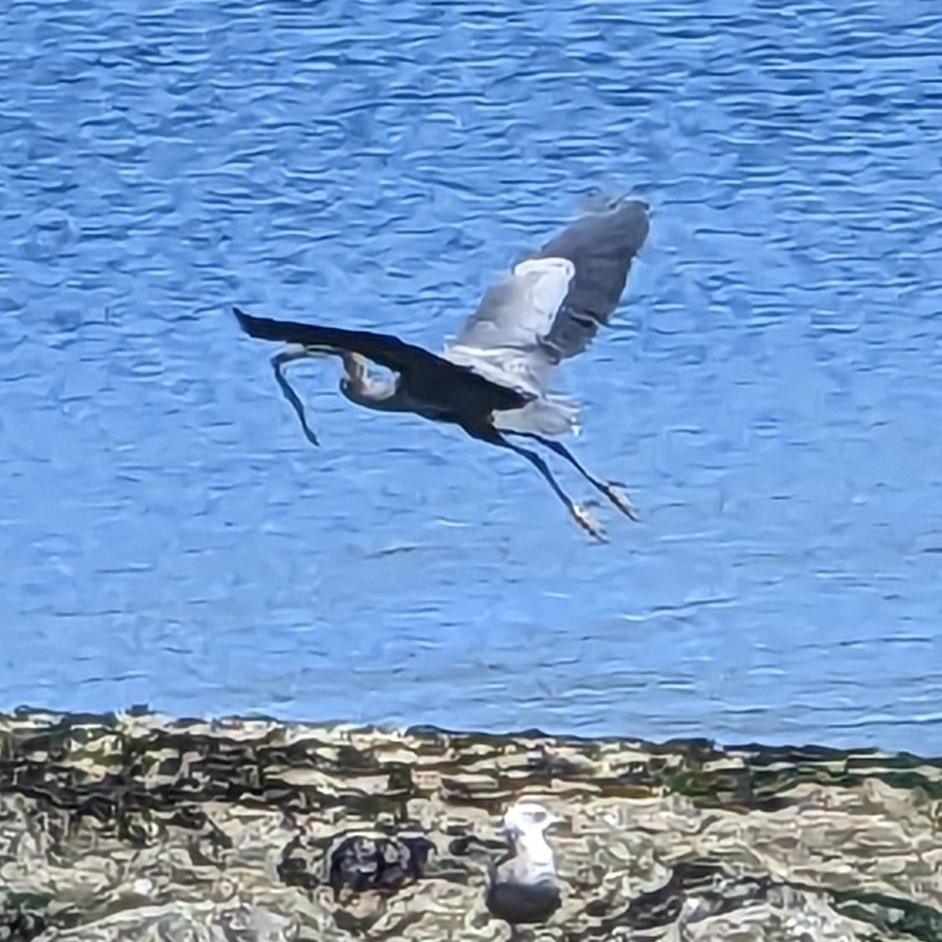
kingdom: Animalia
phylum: Chordata
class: Aves
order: Pelecaniformes
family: Ardeidae
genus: Ardea
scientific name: Ardea herodias
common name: Great blue heron
